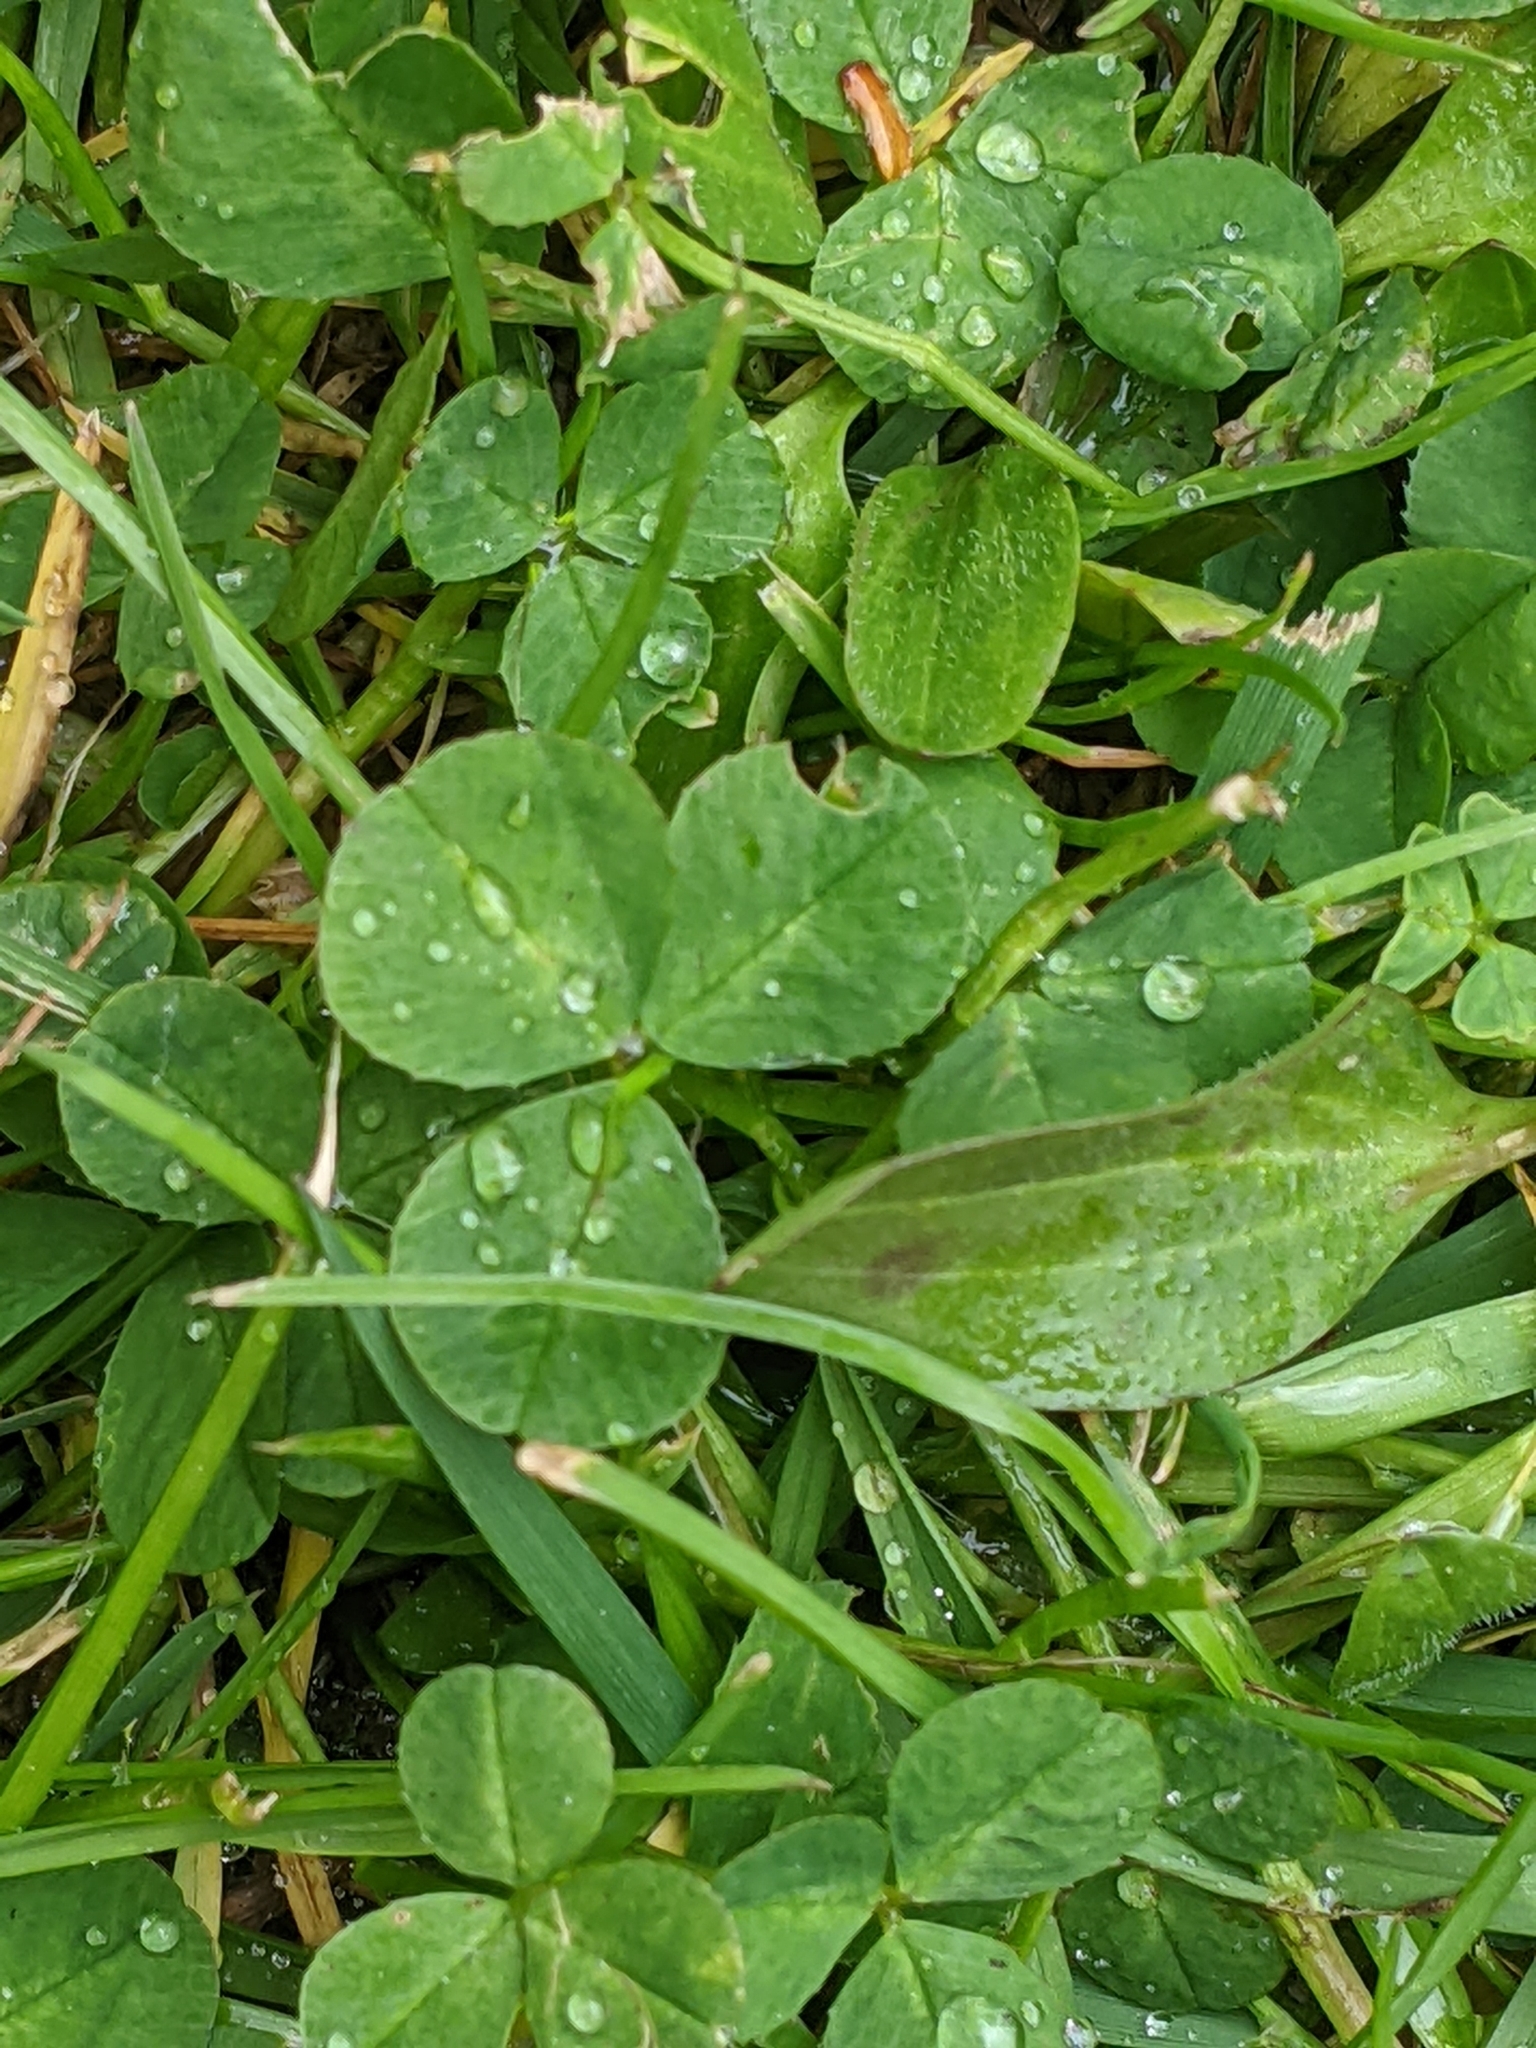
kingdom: Plantae
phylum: Tracheophyta
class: Magnoliopsida
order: Fabales
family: Fabaceae
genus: Trifolium
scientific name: Trifolium repens
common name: White clover
